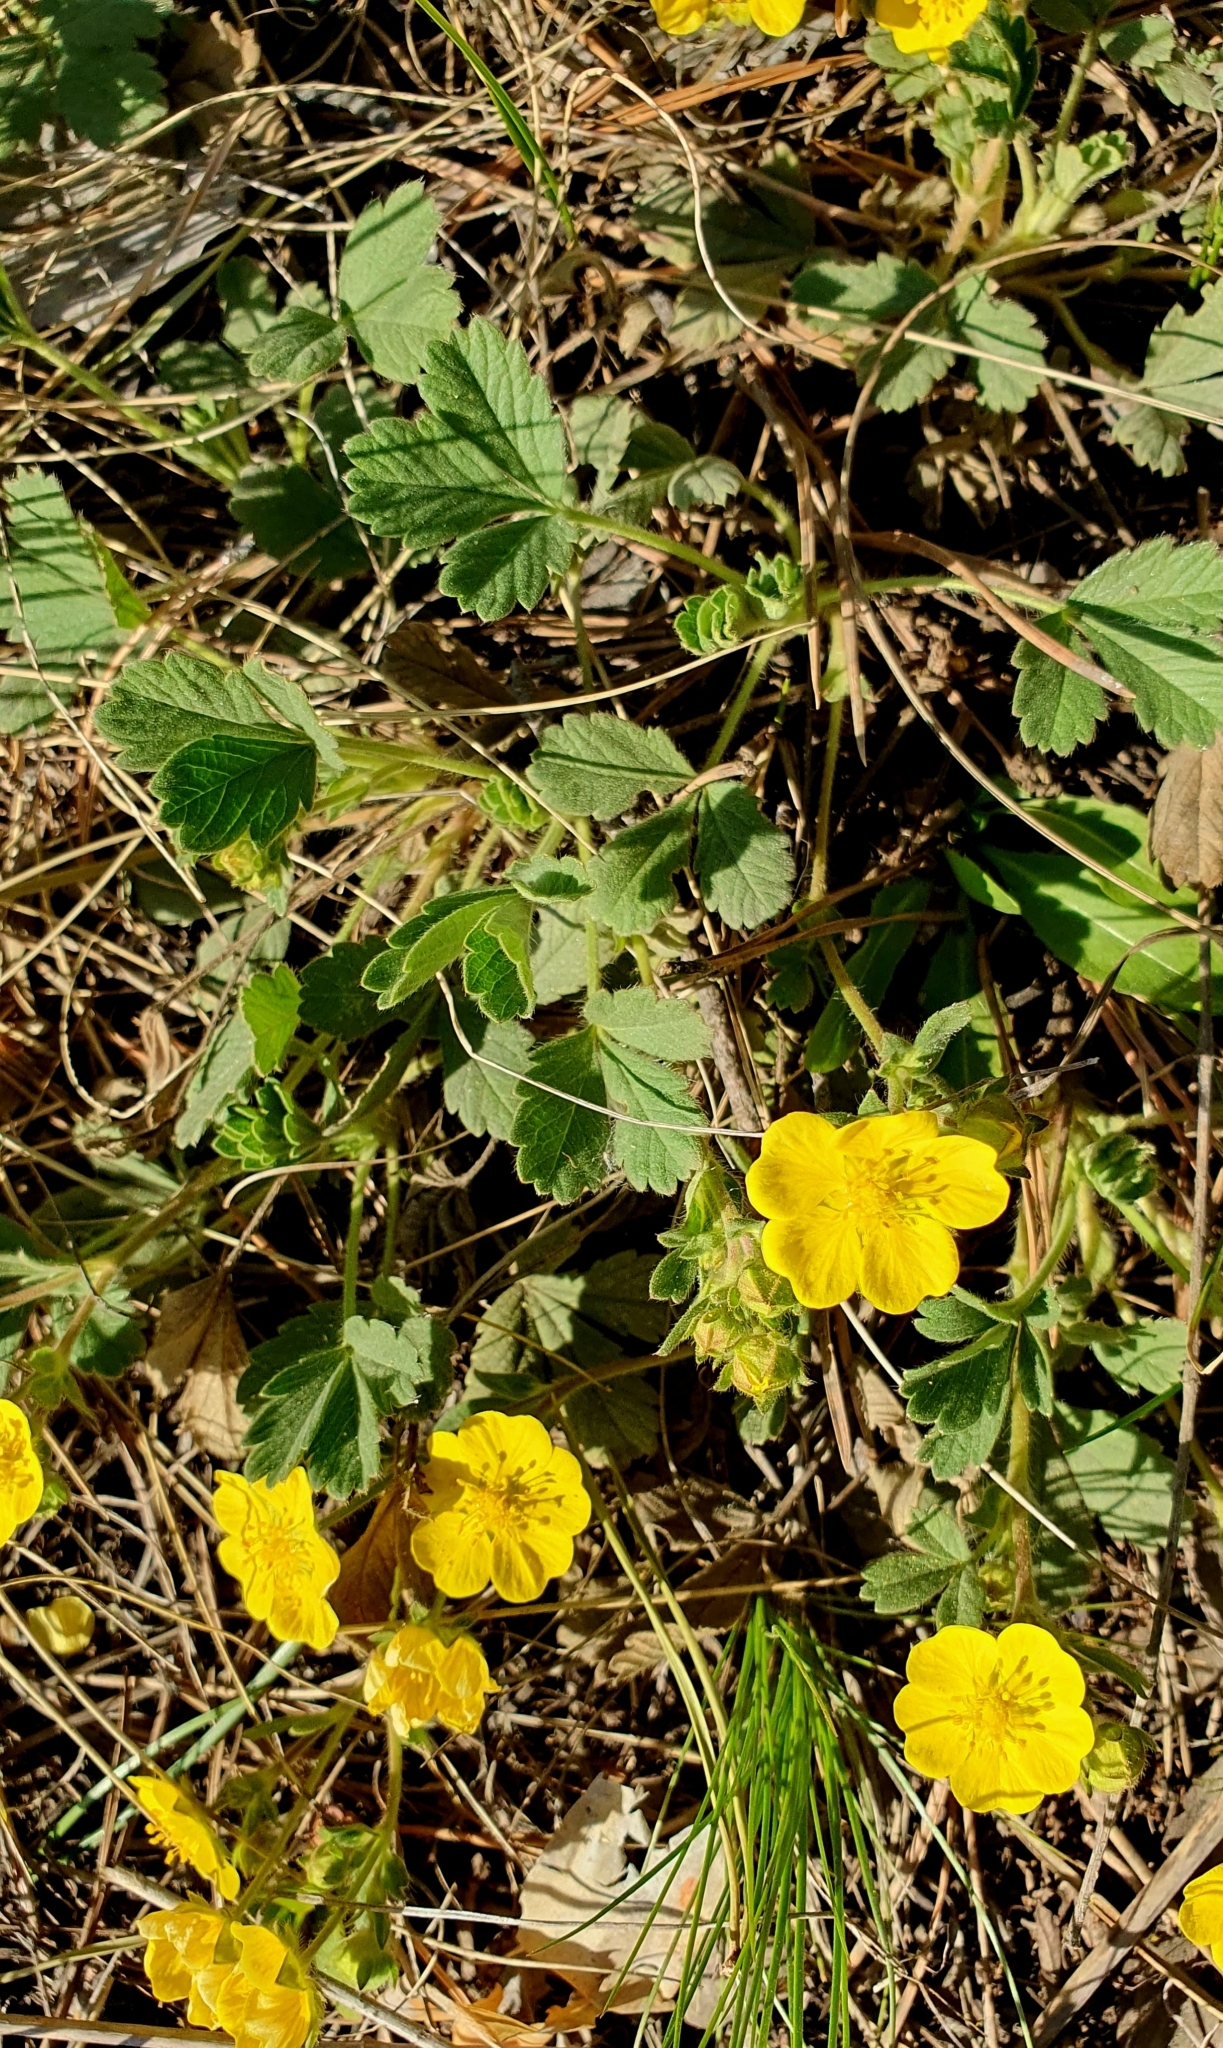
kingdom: Plantae
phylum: Tracheophyta
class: Magnoliopsida
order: Rosales
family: Rosaceae
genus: Potentilla
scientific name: Potentilla incana
